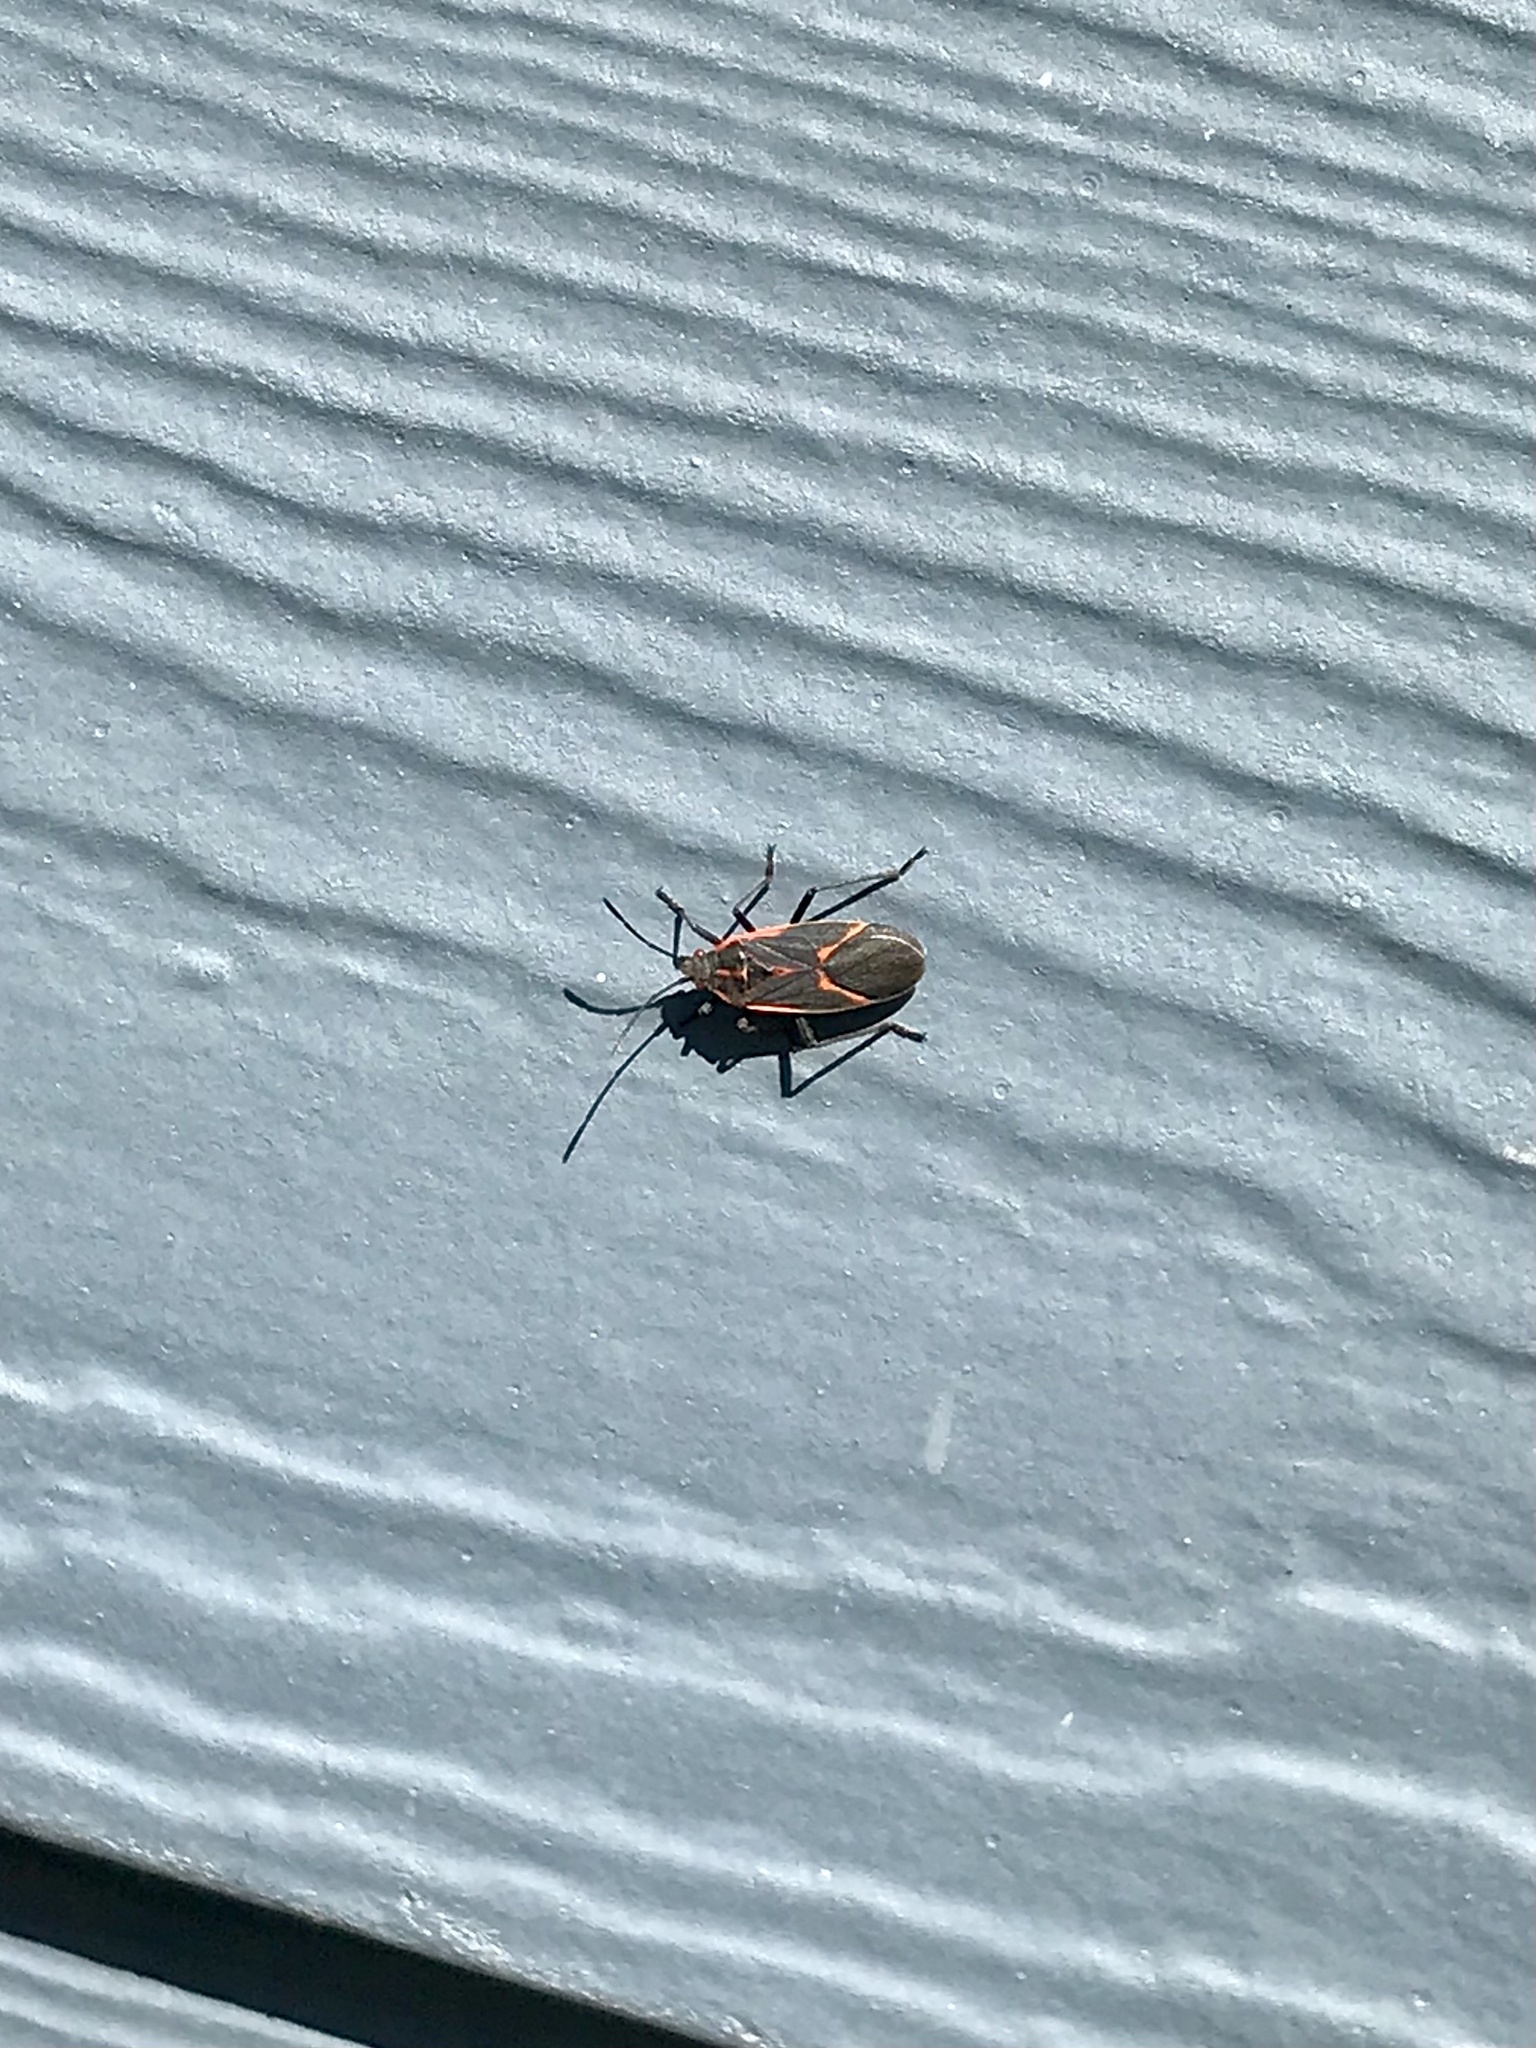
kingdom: Animalia
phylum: Arthropoda
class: Insecta
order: Hemiptera
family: Rhopalidae
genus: Boisea
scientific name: Boisea trivittata
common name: Boxelder bug
